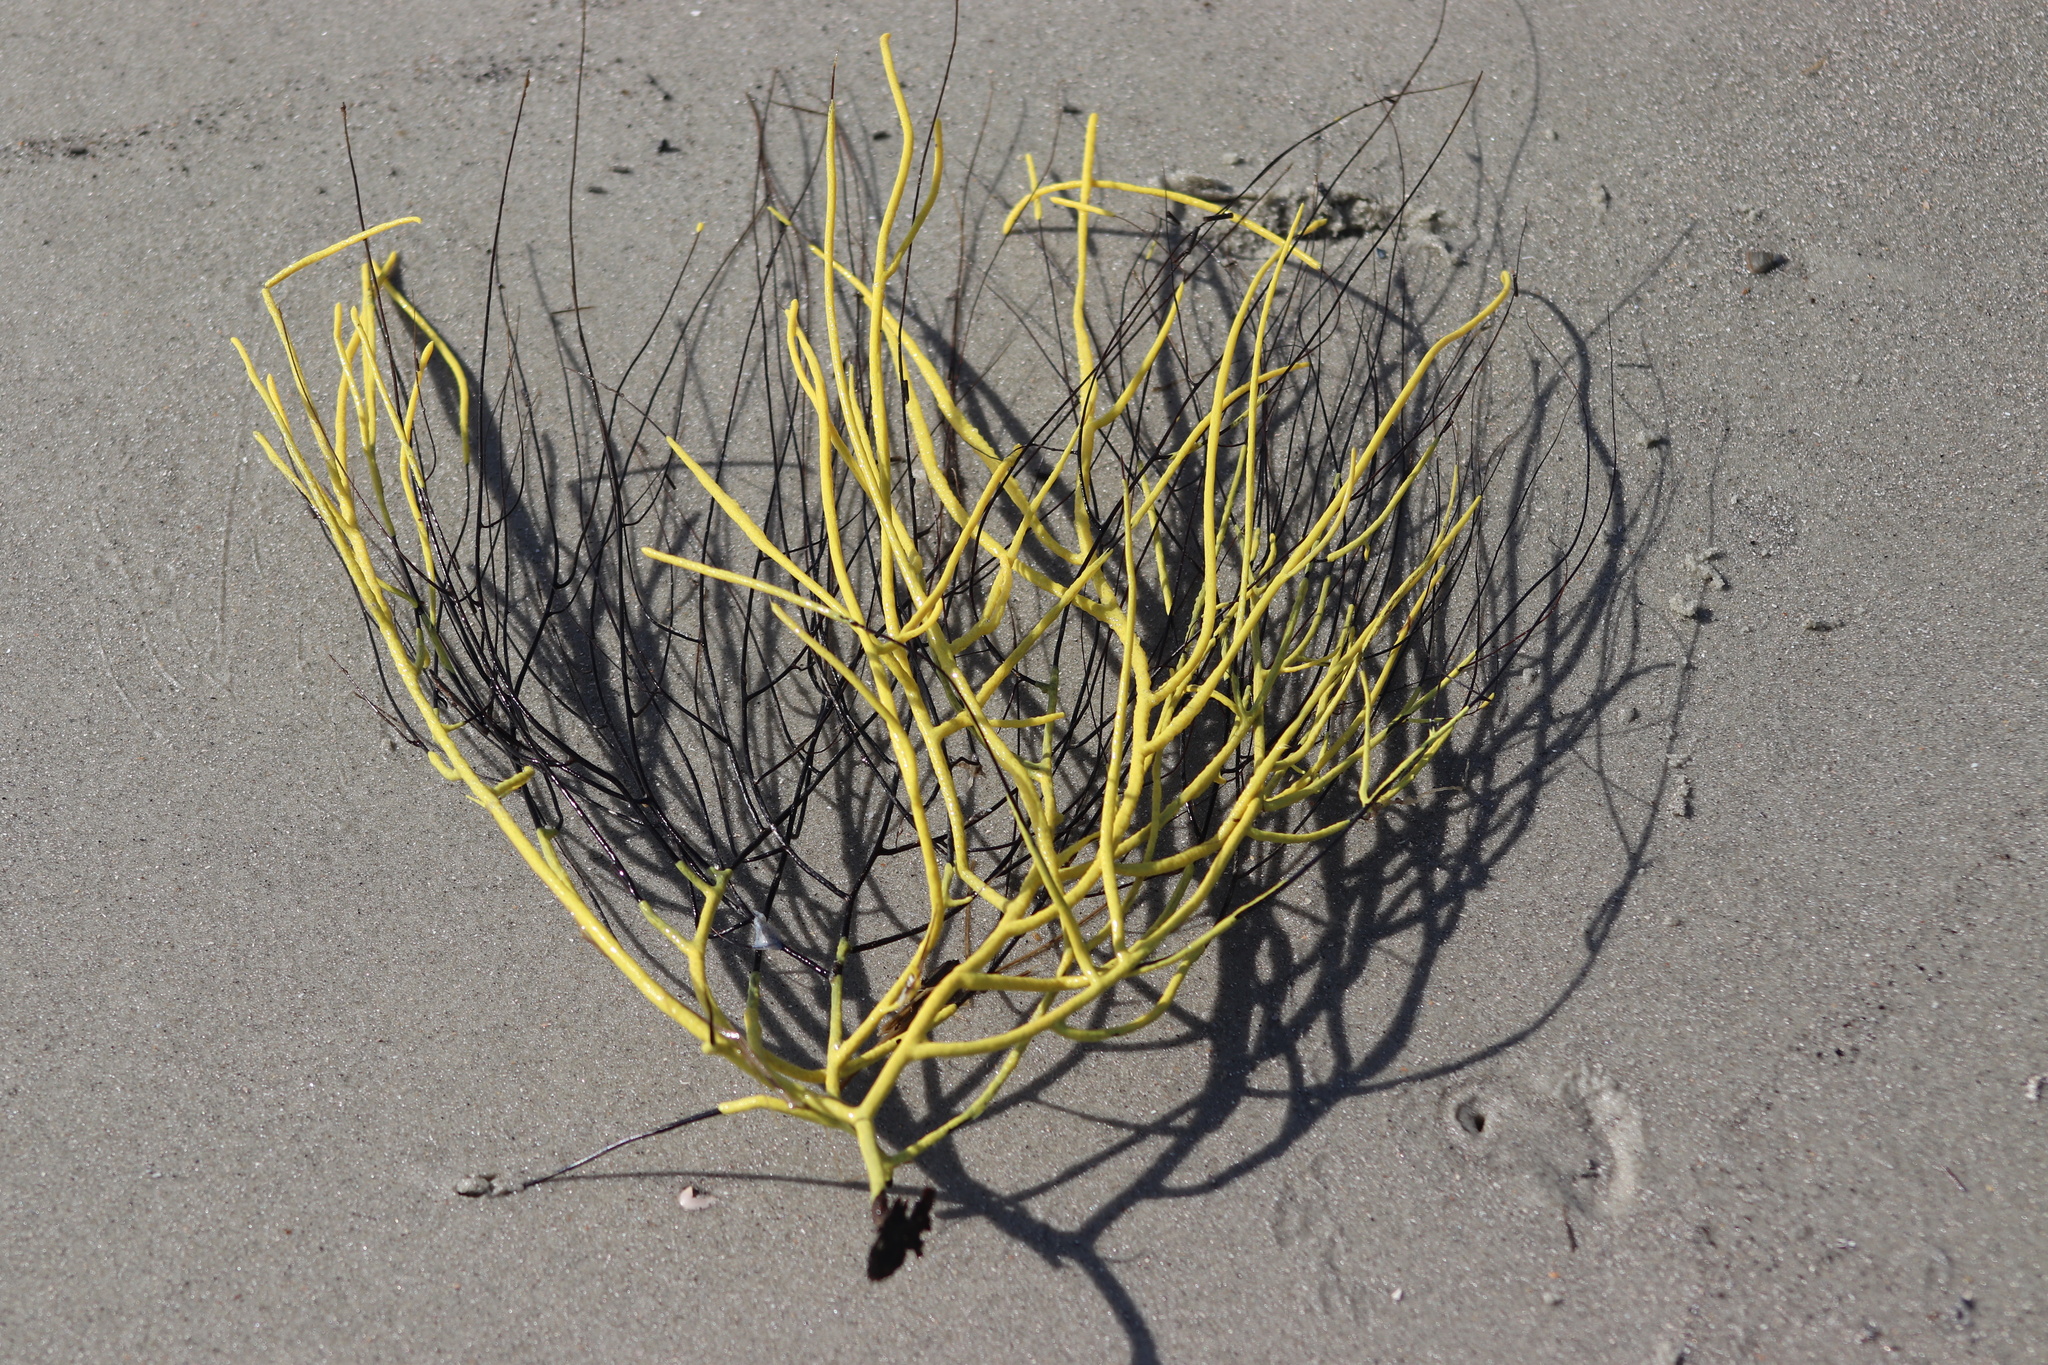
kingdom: Animalia
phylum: Cnidaria
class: Anthozoa
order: Malacalcyonacea
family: Gorgoniidae
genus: Leptogorgia
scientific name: Leptogorgia virgulata
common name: Colorful sea whip
